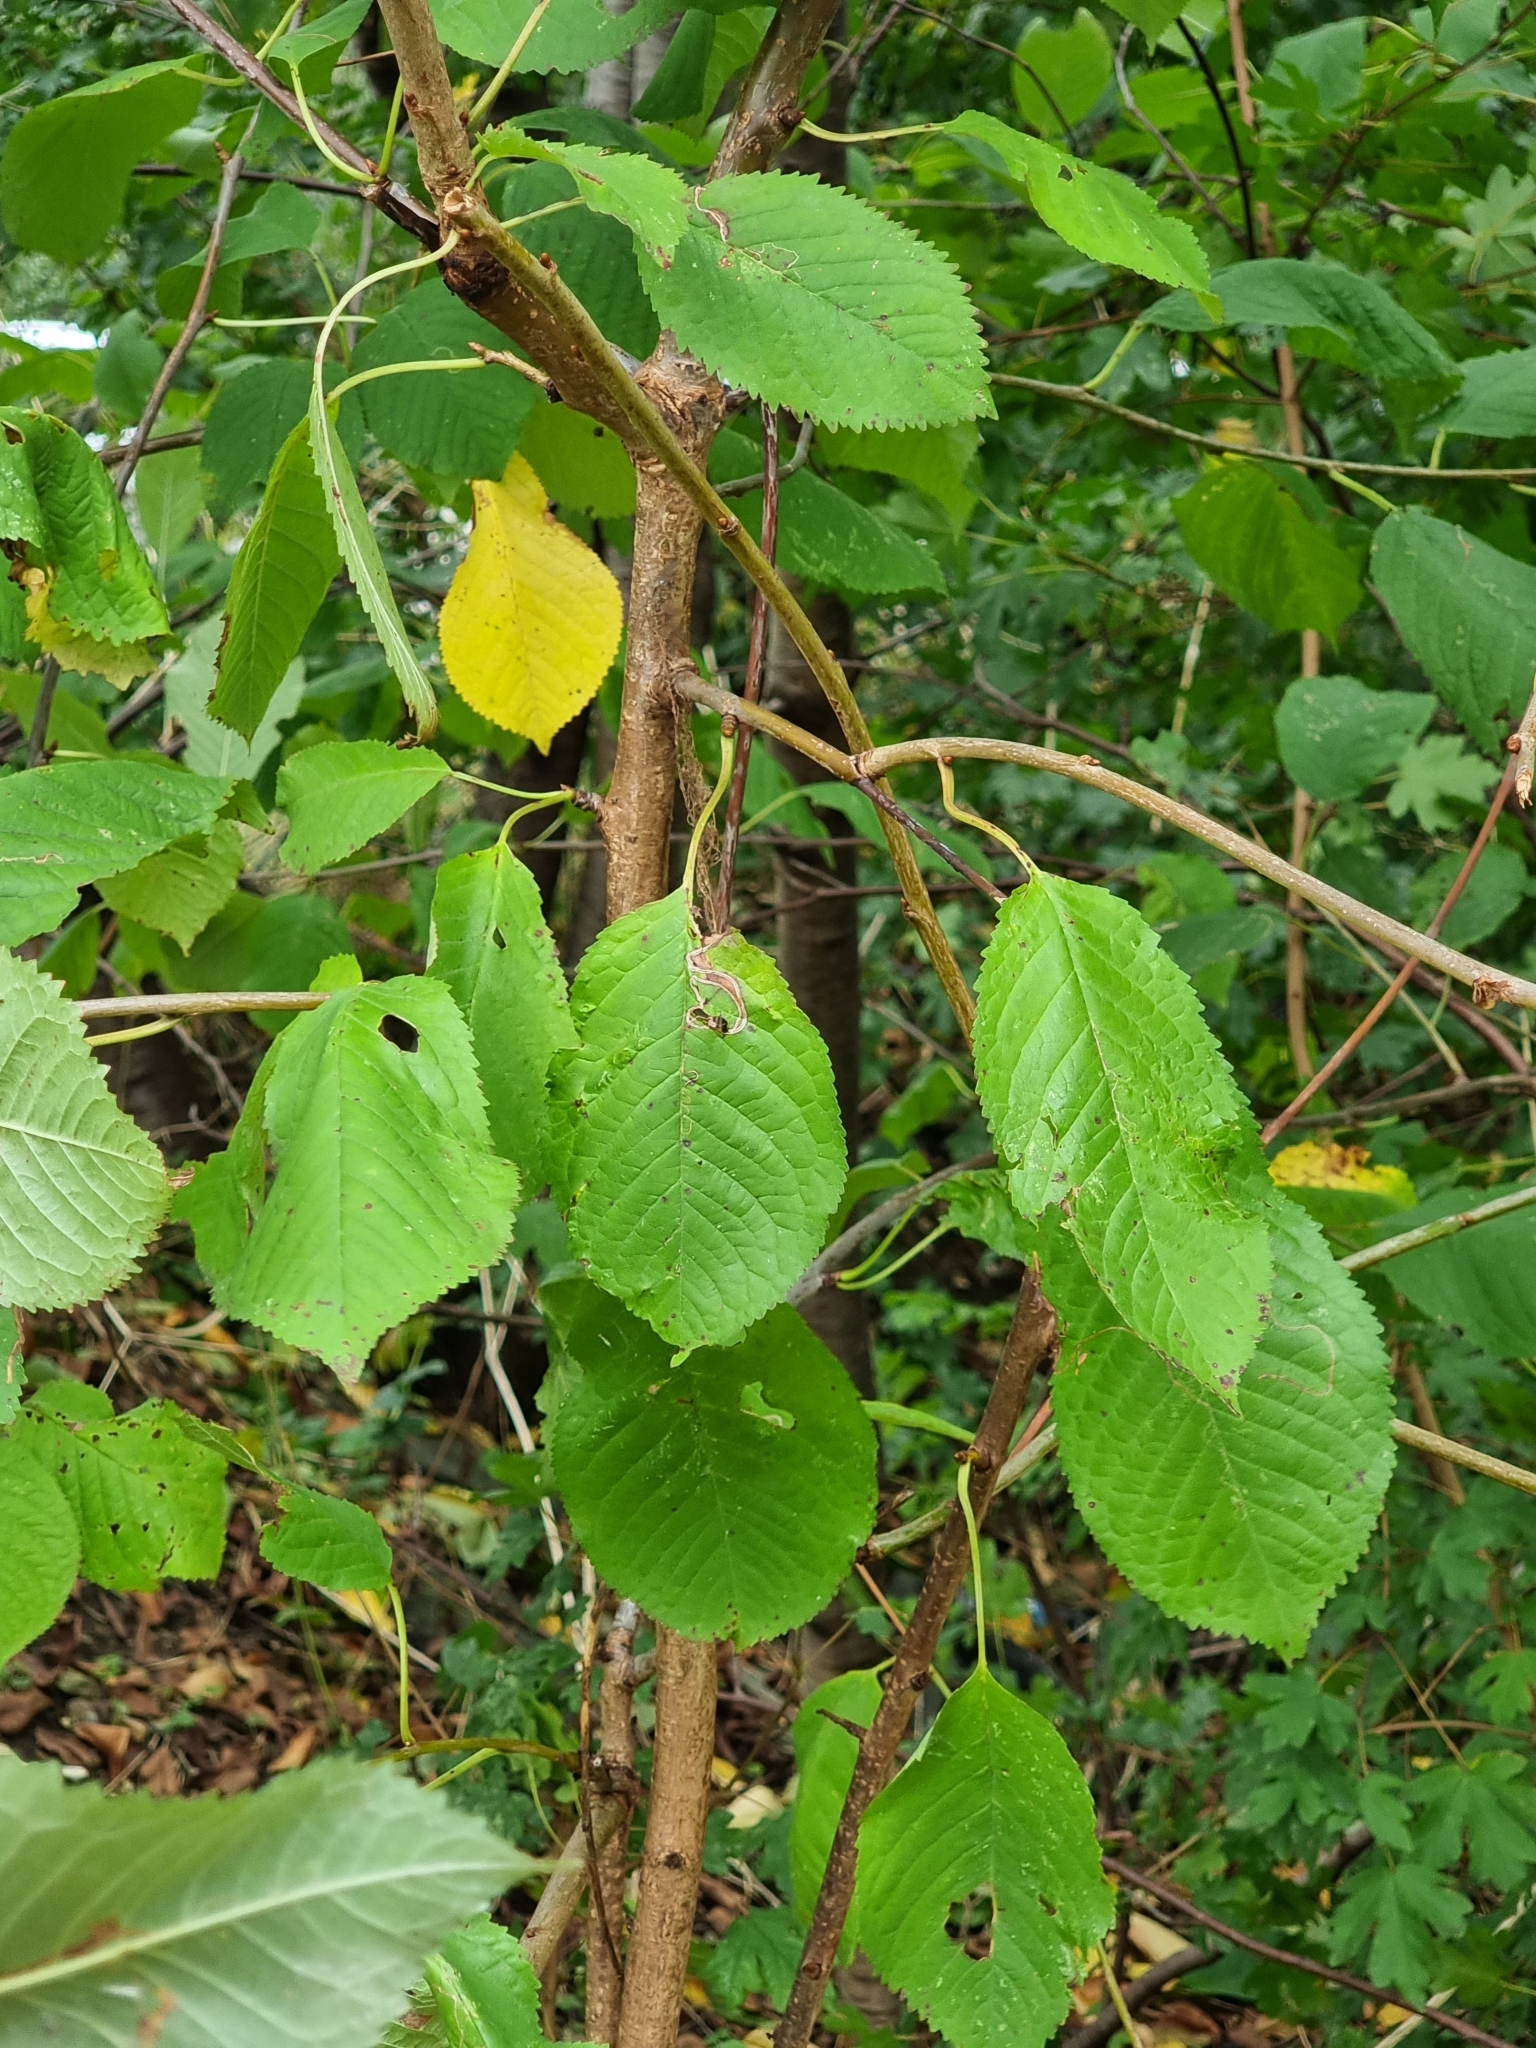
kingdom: Plantae
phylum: Tracheophyta
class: Magnoliopsida
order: Rosales
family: Rosaceae
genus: Prunus
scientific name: Prunus avium
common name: Sweet cherry
